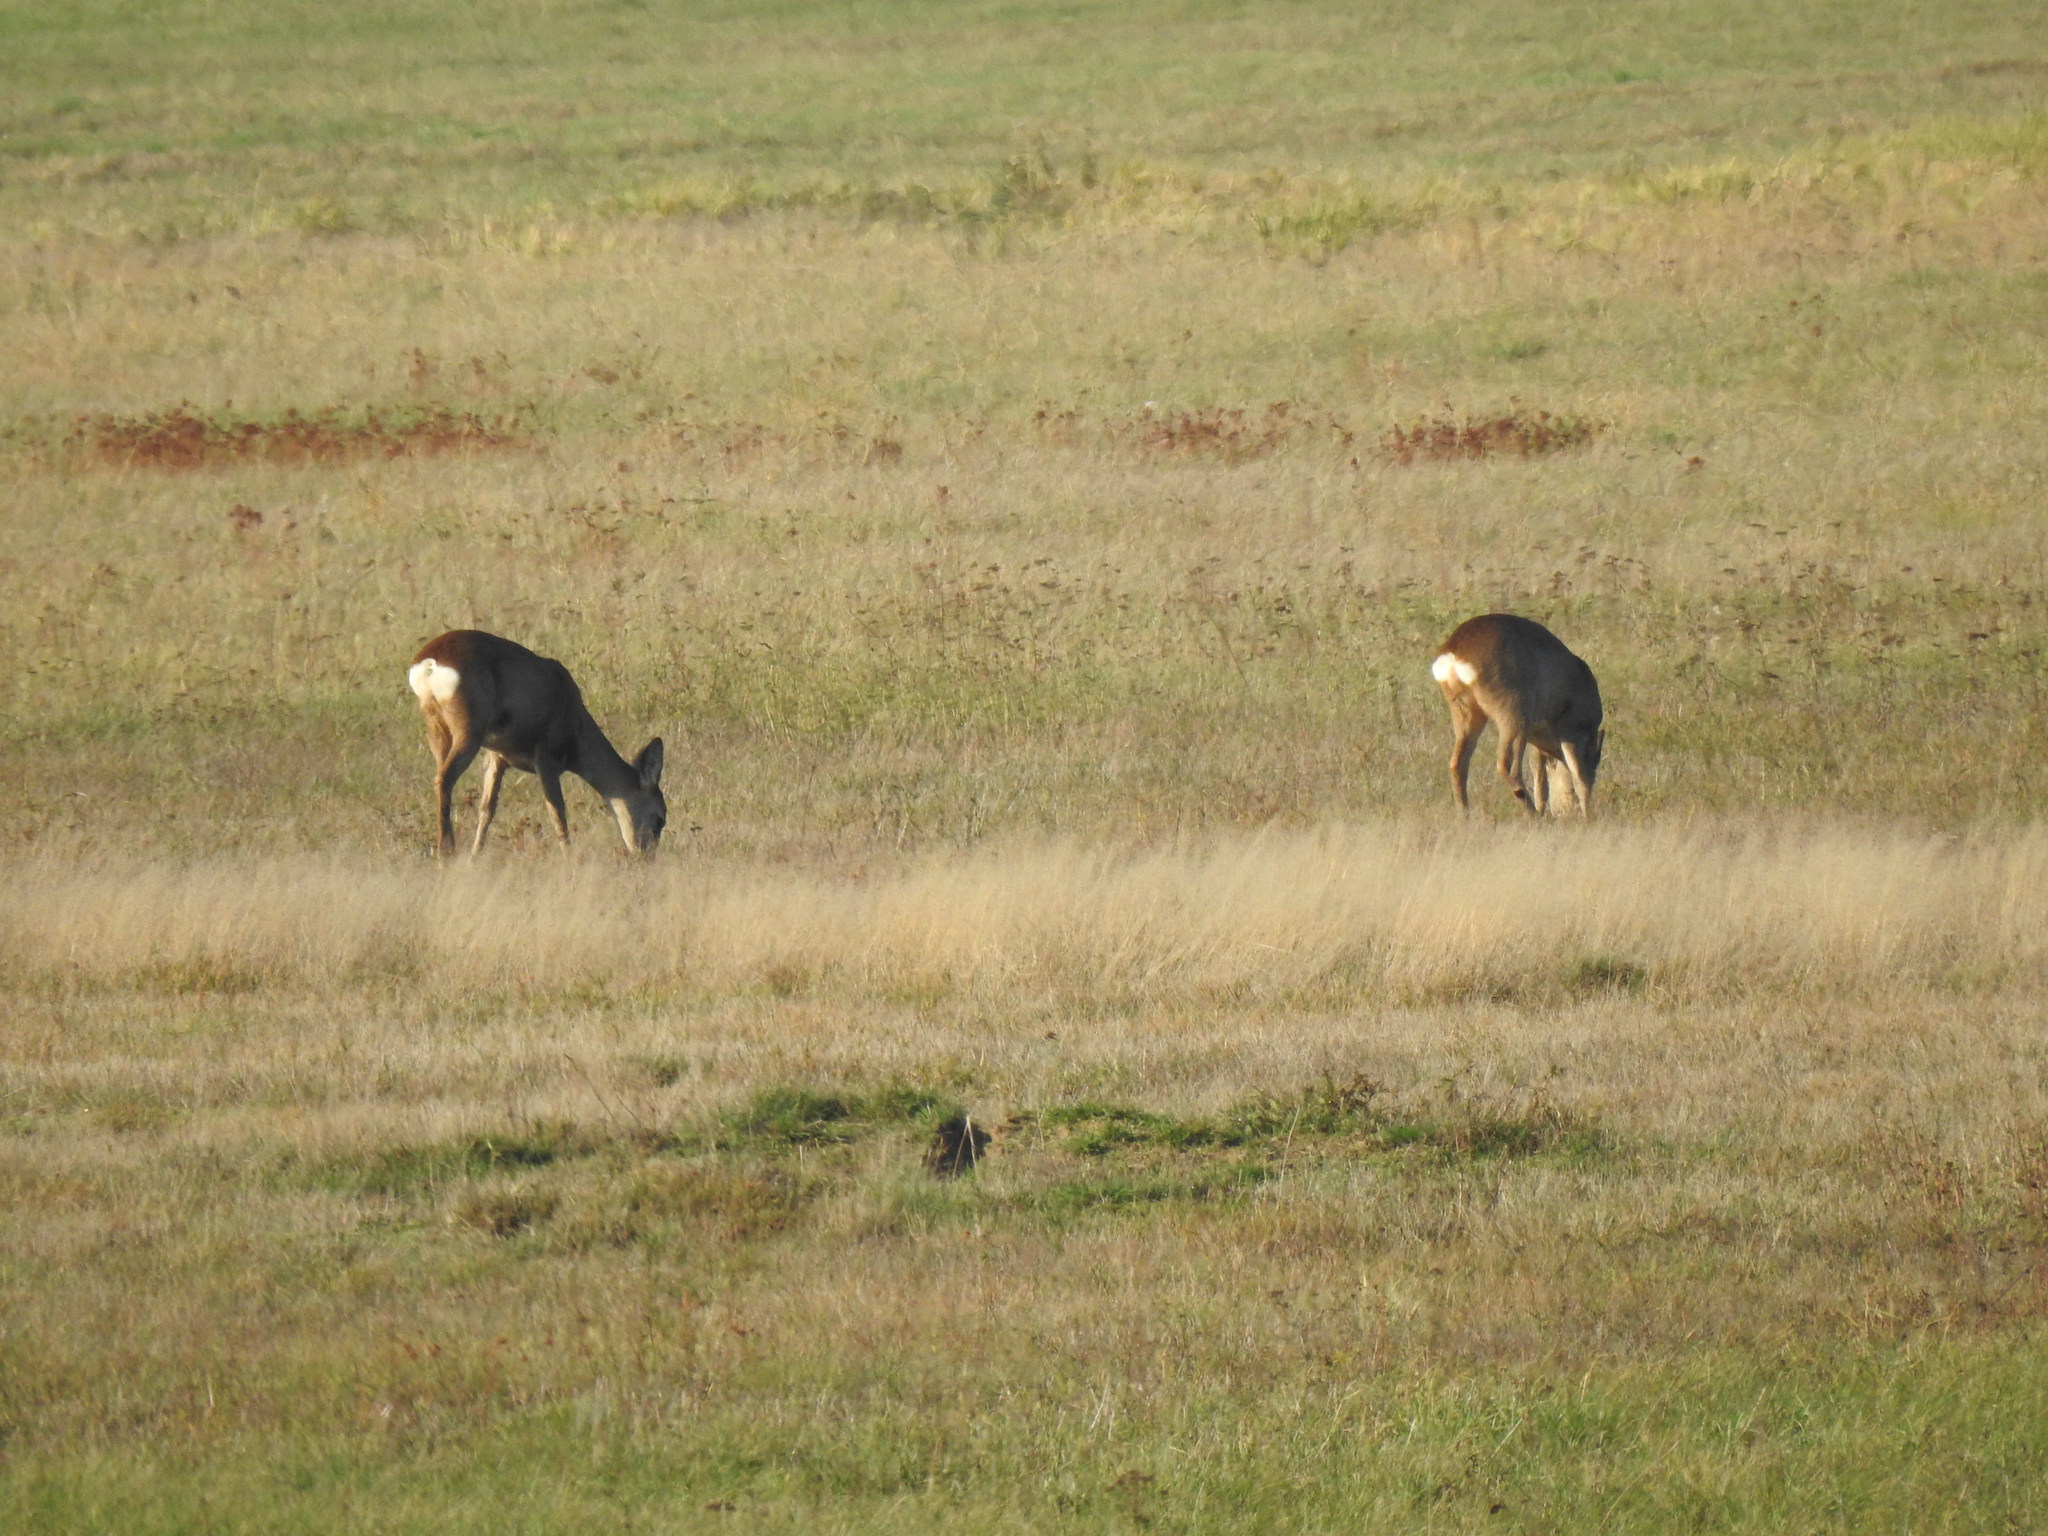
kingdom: Animalia
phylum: Chordata
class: Mammalia
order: Artiodactyla
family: Cervidae
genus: Capreolus
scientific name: Capreolus capreolus
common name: Western roe deer
